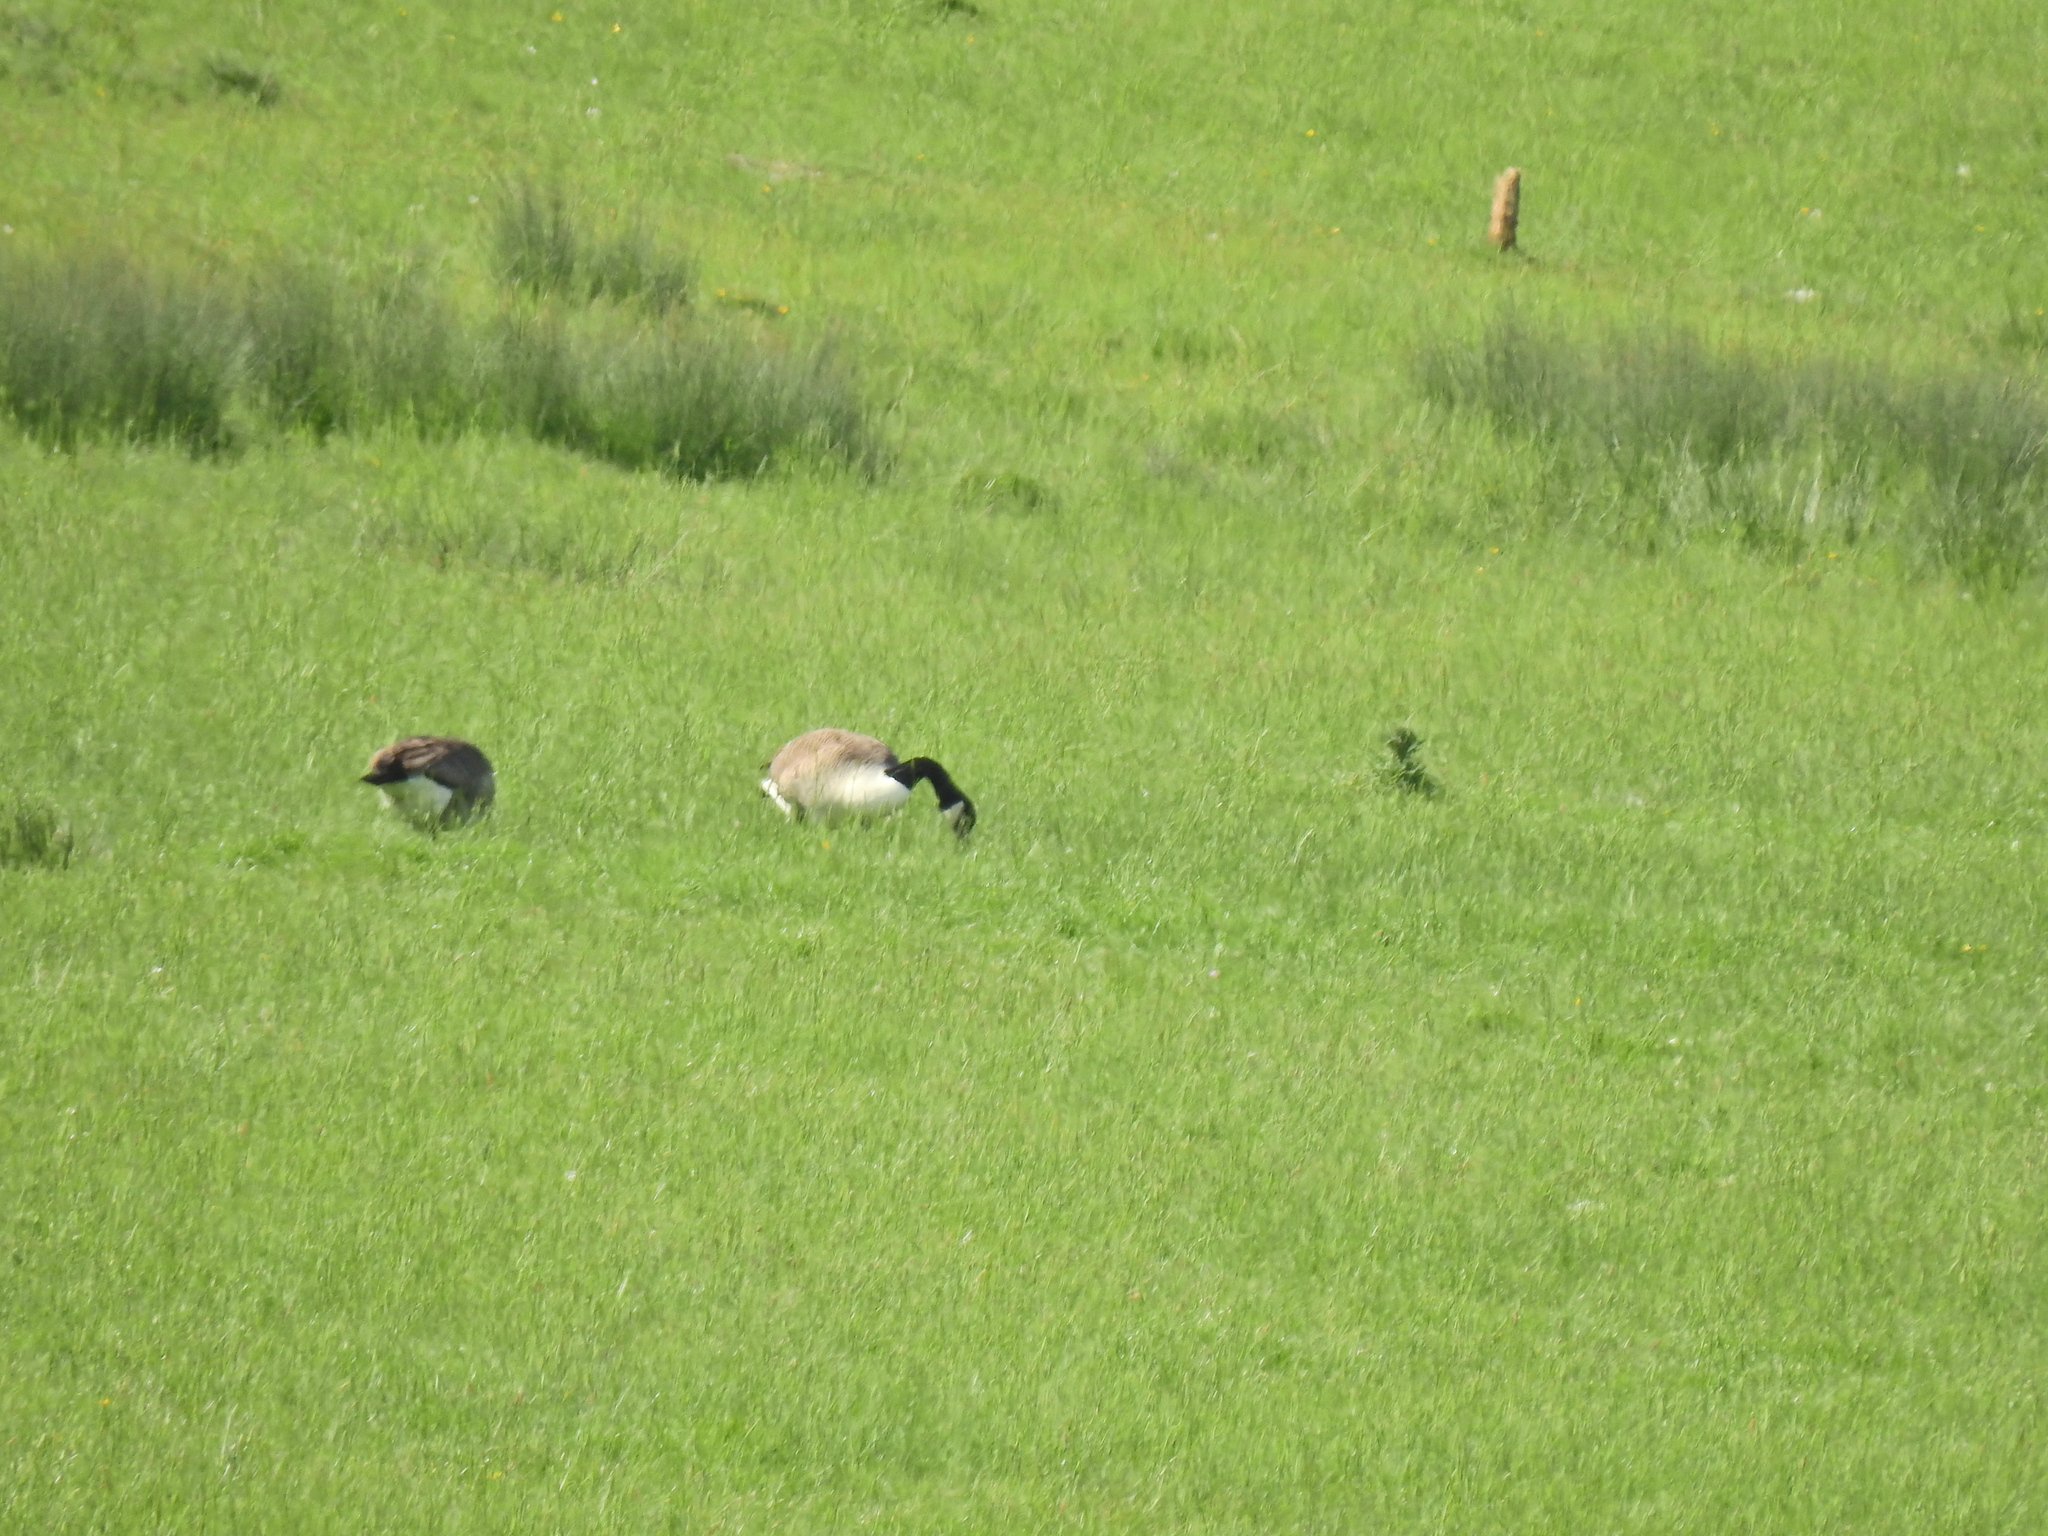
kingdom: Animalia
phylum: Chordata
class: Aves
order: Anseriformes
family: Anatidae
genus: Branta
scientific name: Branta canadensis
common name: Canada goose
